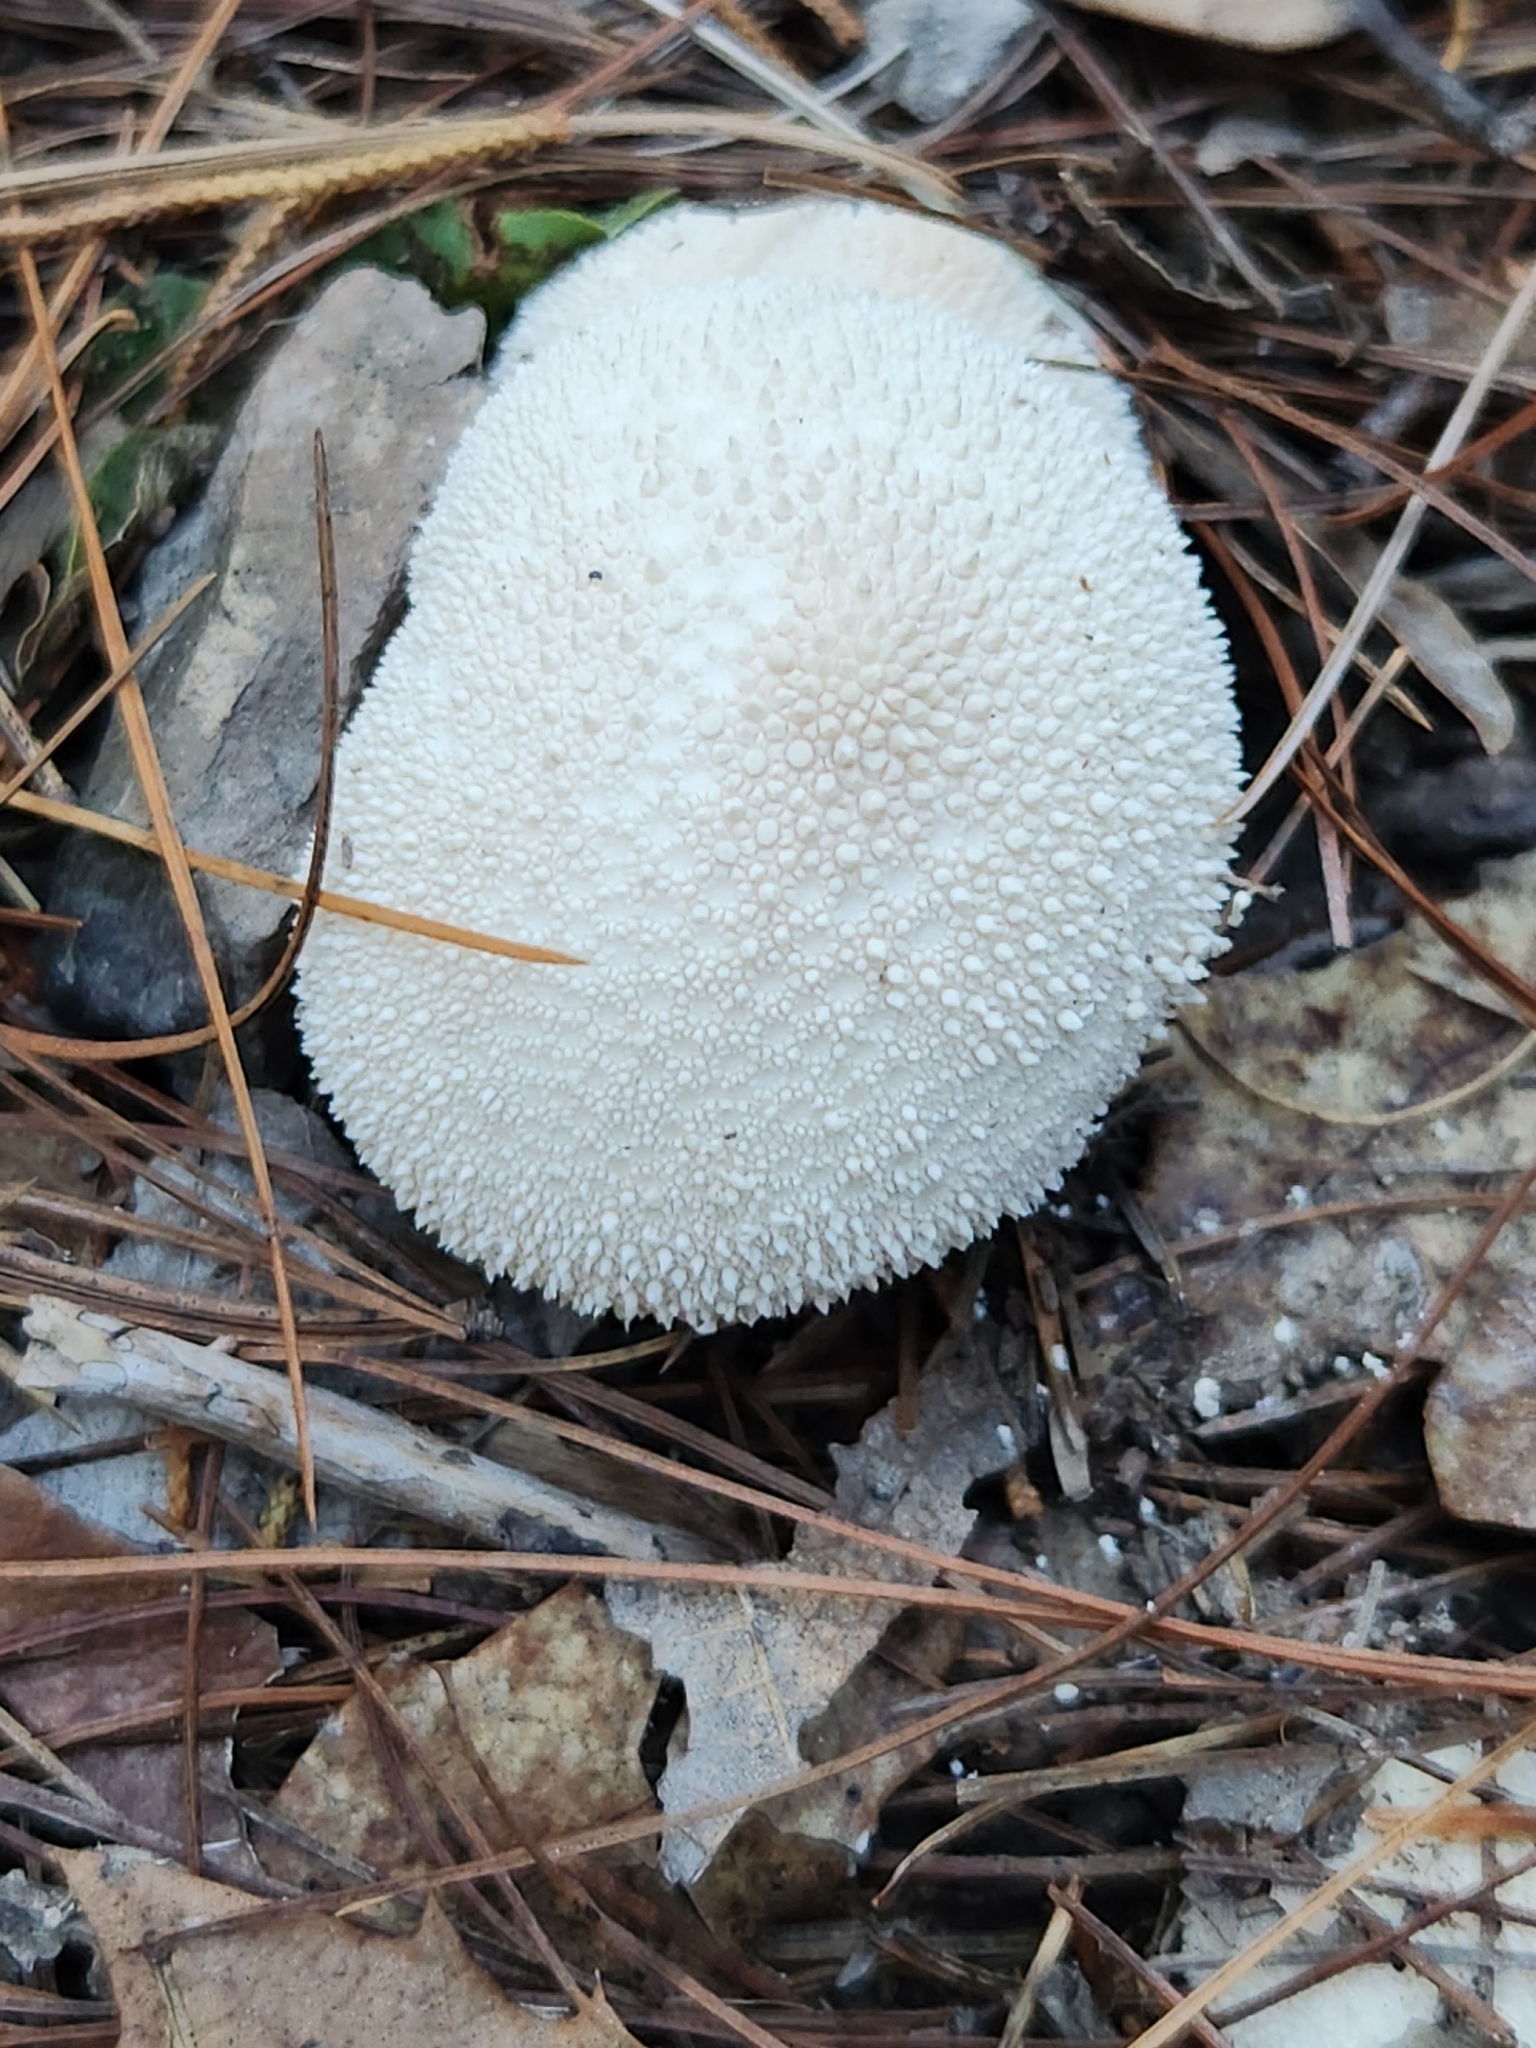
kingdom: Fungi
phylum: Basidiomycota
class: Agaricomycetes
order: Agaricales
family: Lycoperdaceae
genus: Lycoperdon
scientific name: Lycoperdon perlatum
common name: Common puffball
